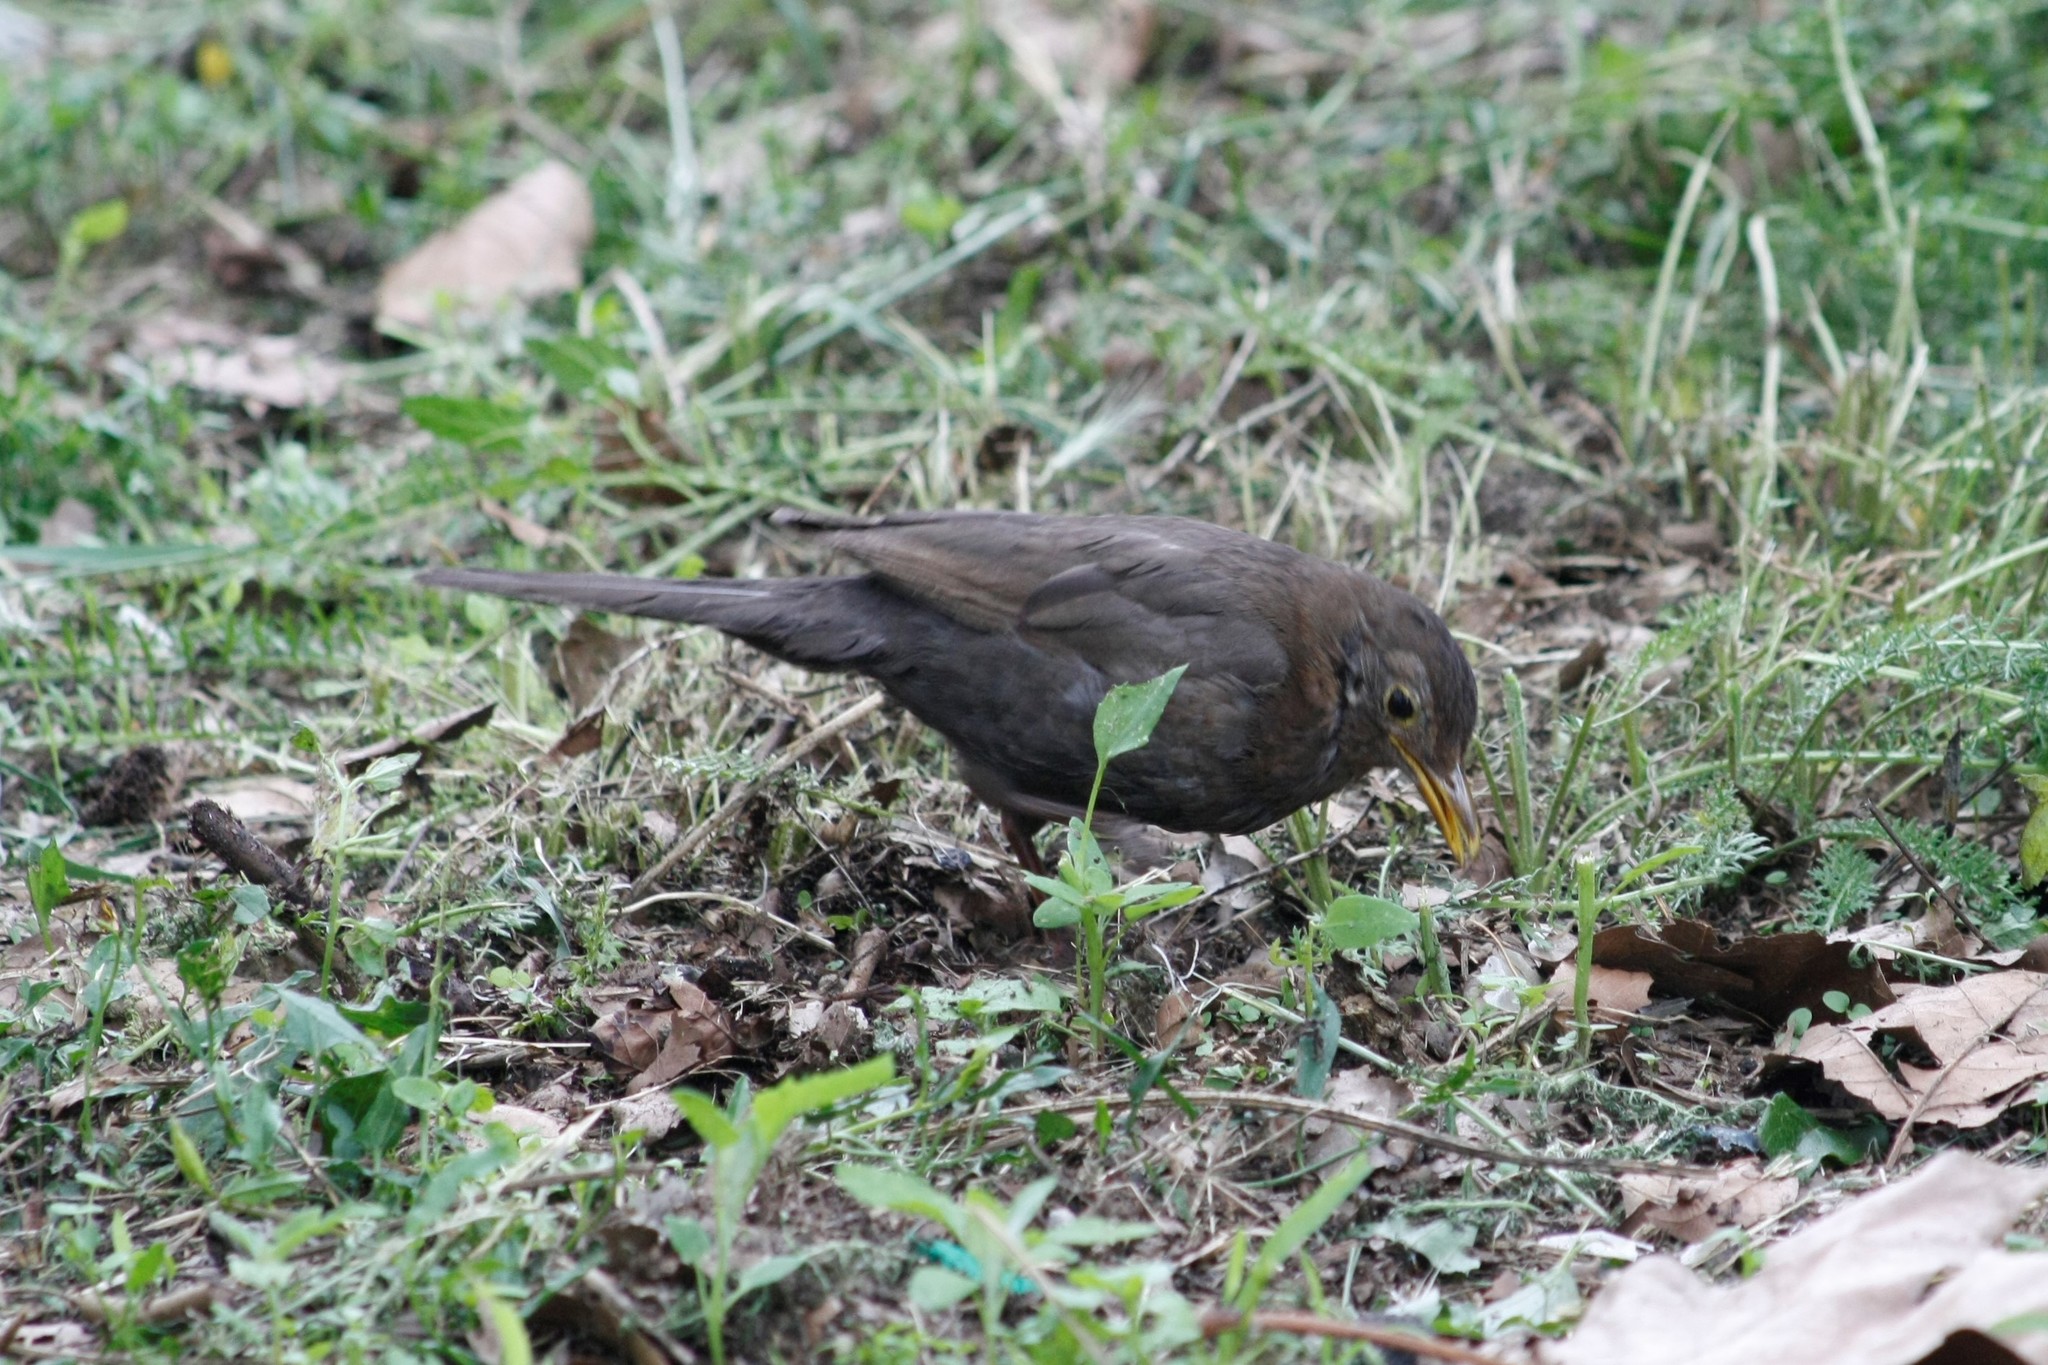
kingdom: Animalia
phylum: Chordata
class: Aves
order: Passeriformes
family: Turdidae
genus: Turdus
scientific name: Turdus merula
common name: Common blackbird
